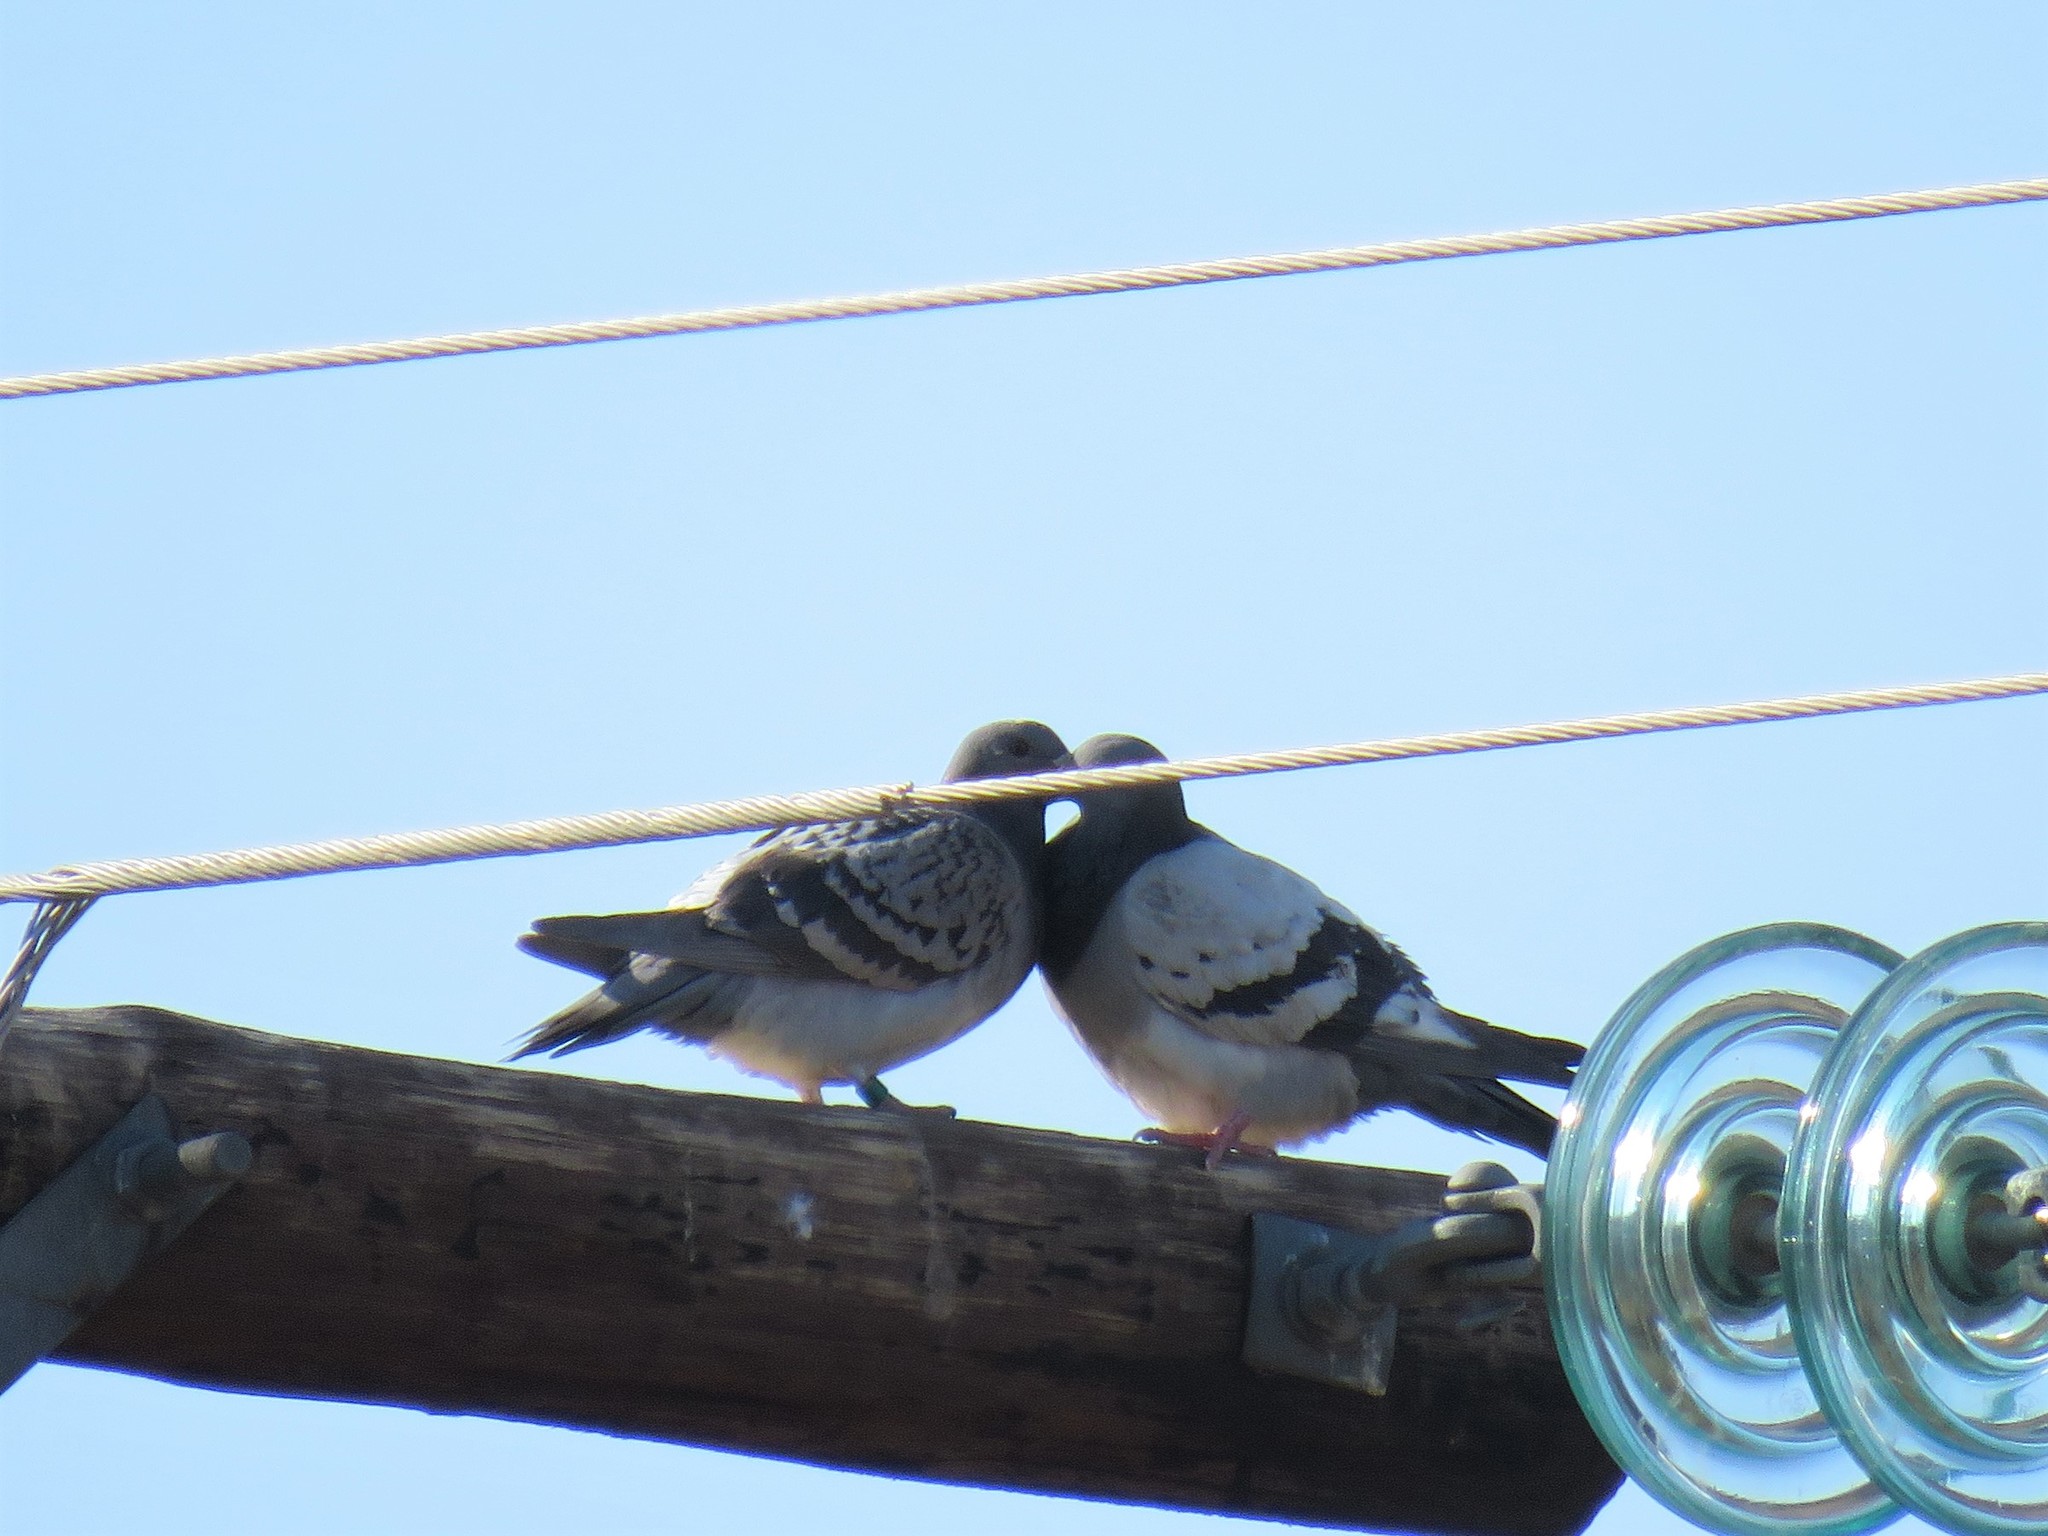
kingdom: Animalia
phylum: Chordata
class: Aves
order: Columbiformes
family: Columbidae
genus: Columba
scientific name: Columba livia
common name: Rock pigeon
